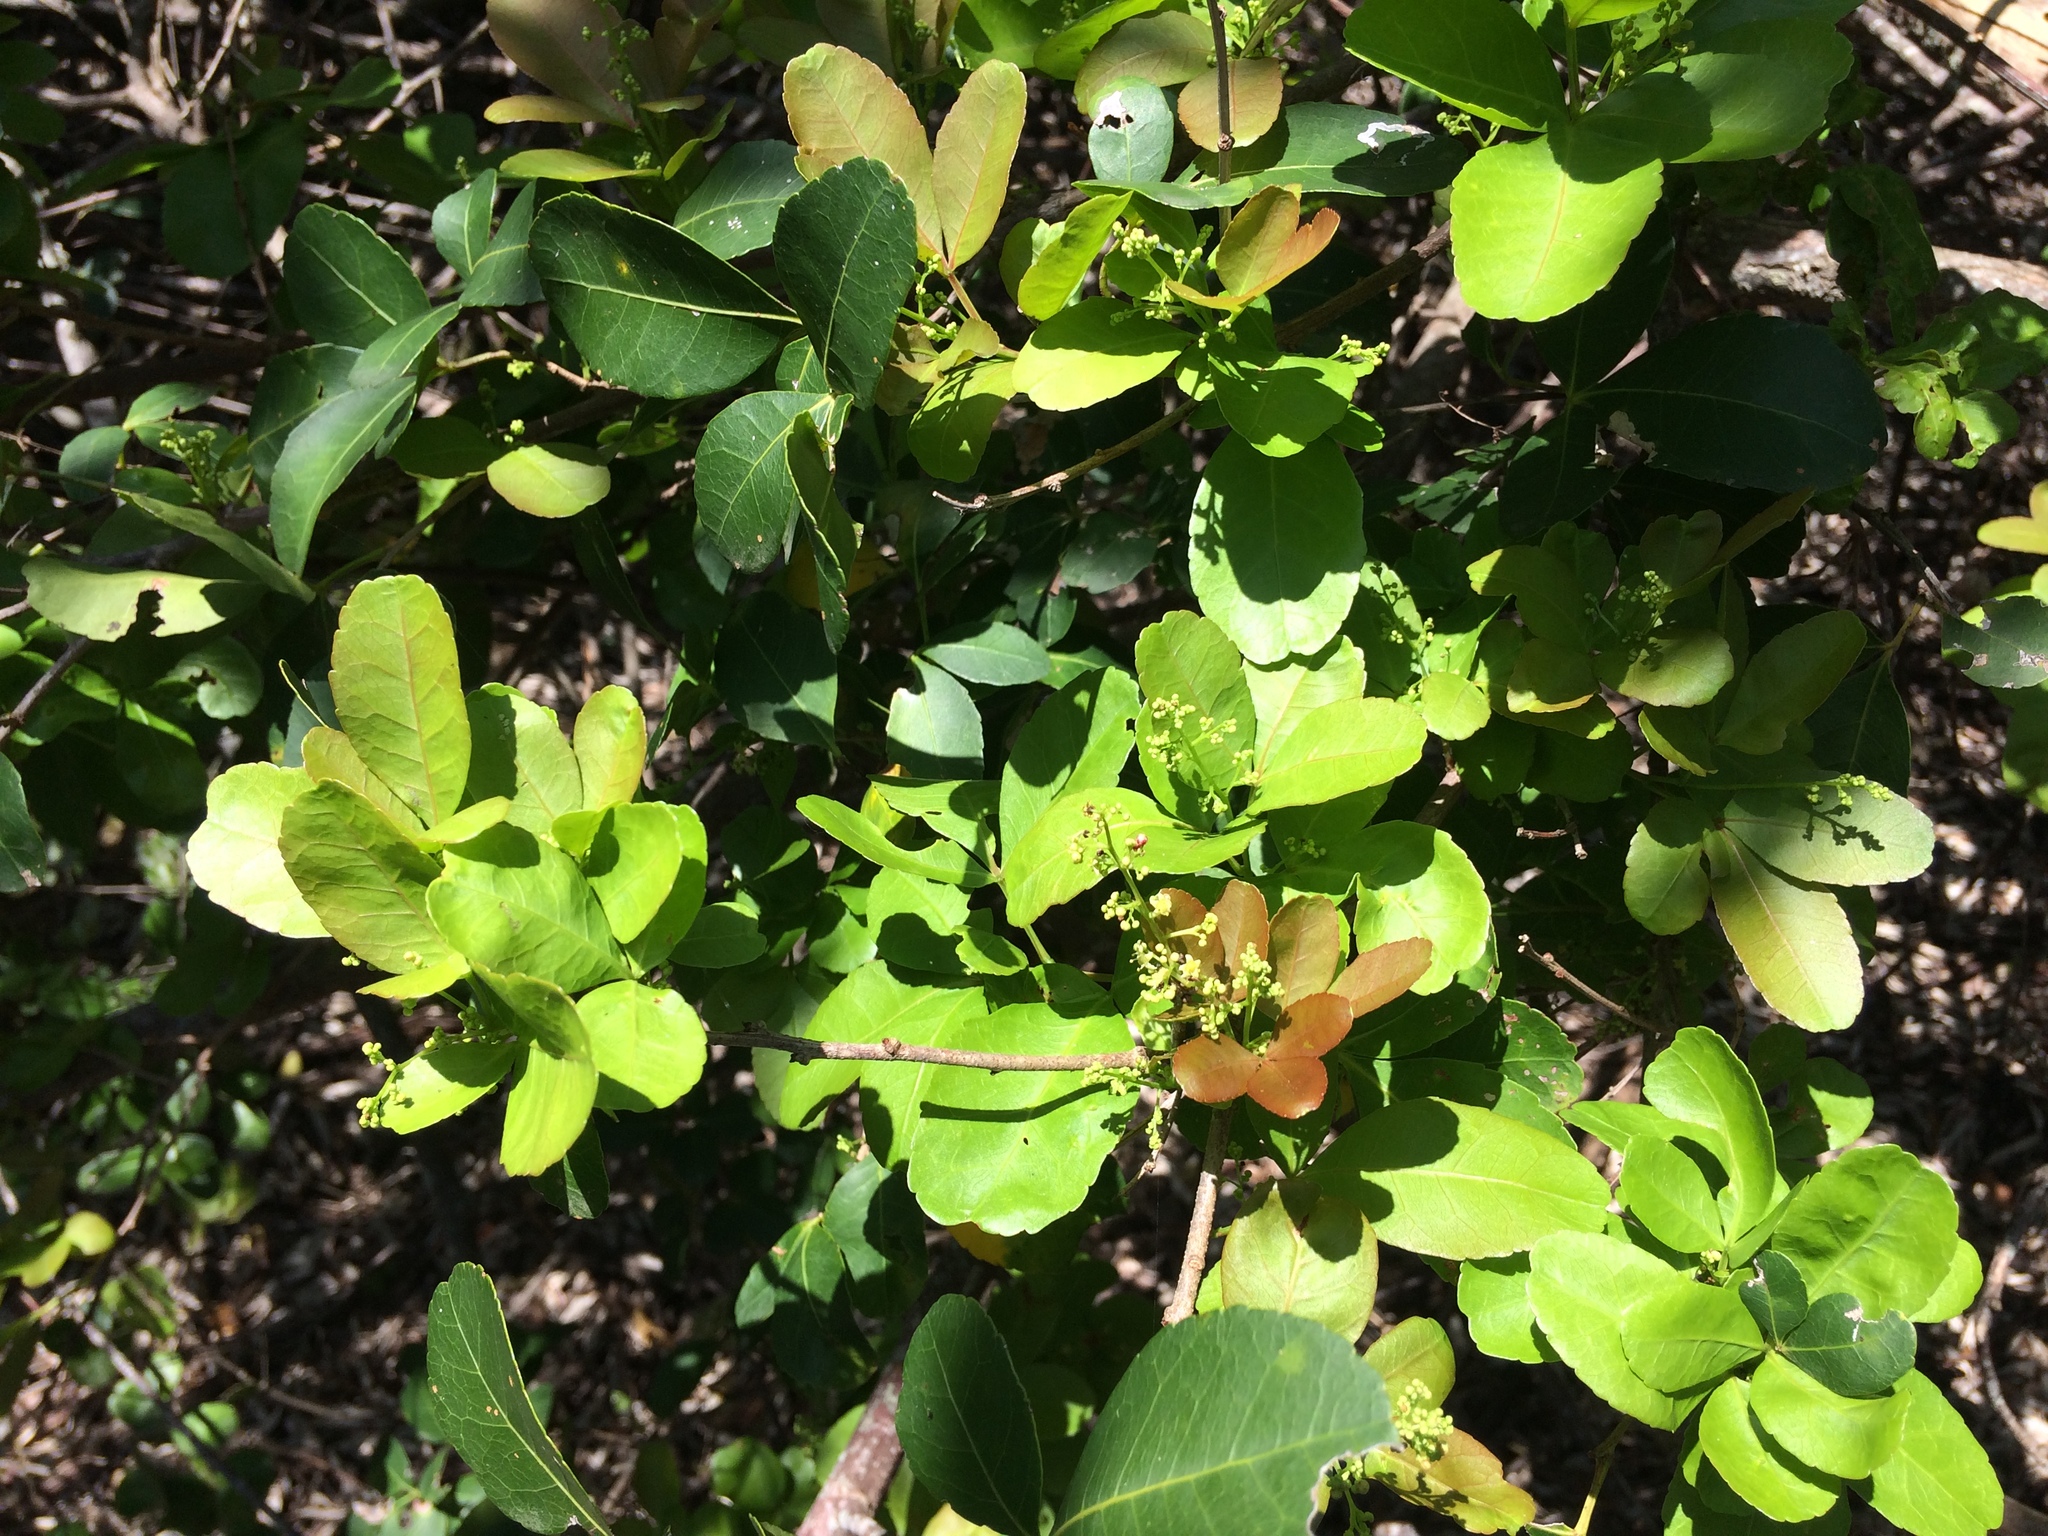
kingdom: Plantae
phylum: Tracheophyta
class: Magnoliopsida
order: Sapindales
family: Anacardiaceae
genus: Searsia
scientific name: Searsia natalensis
